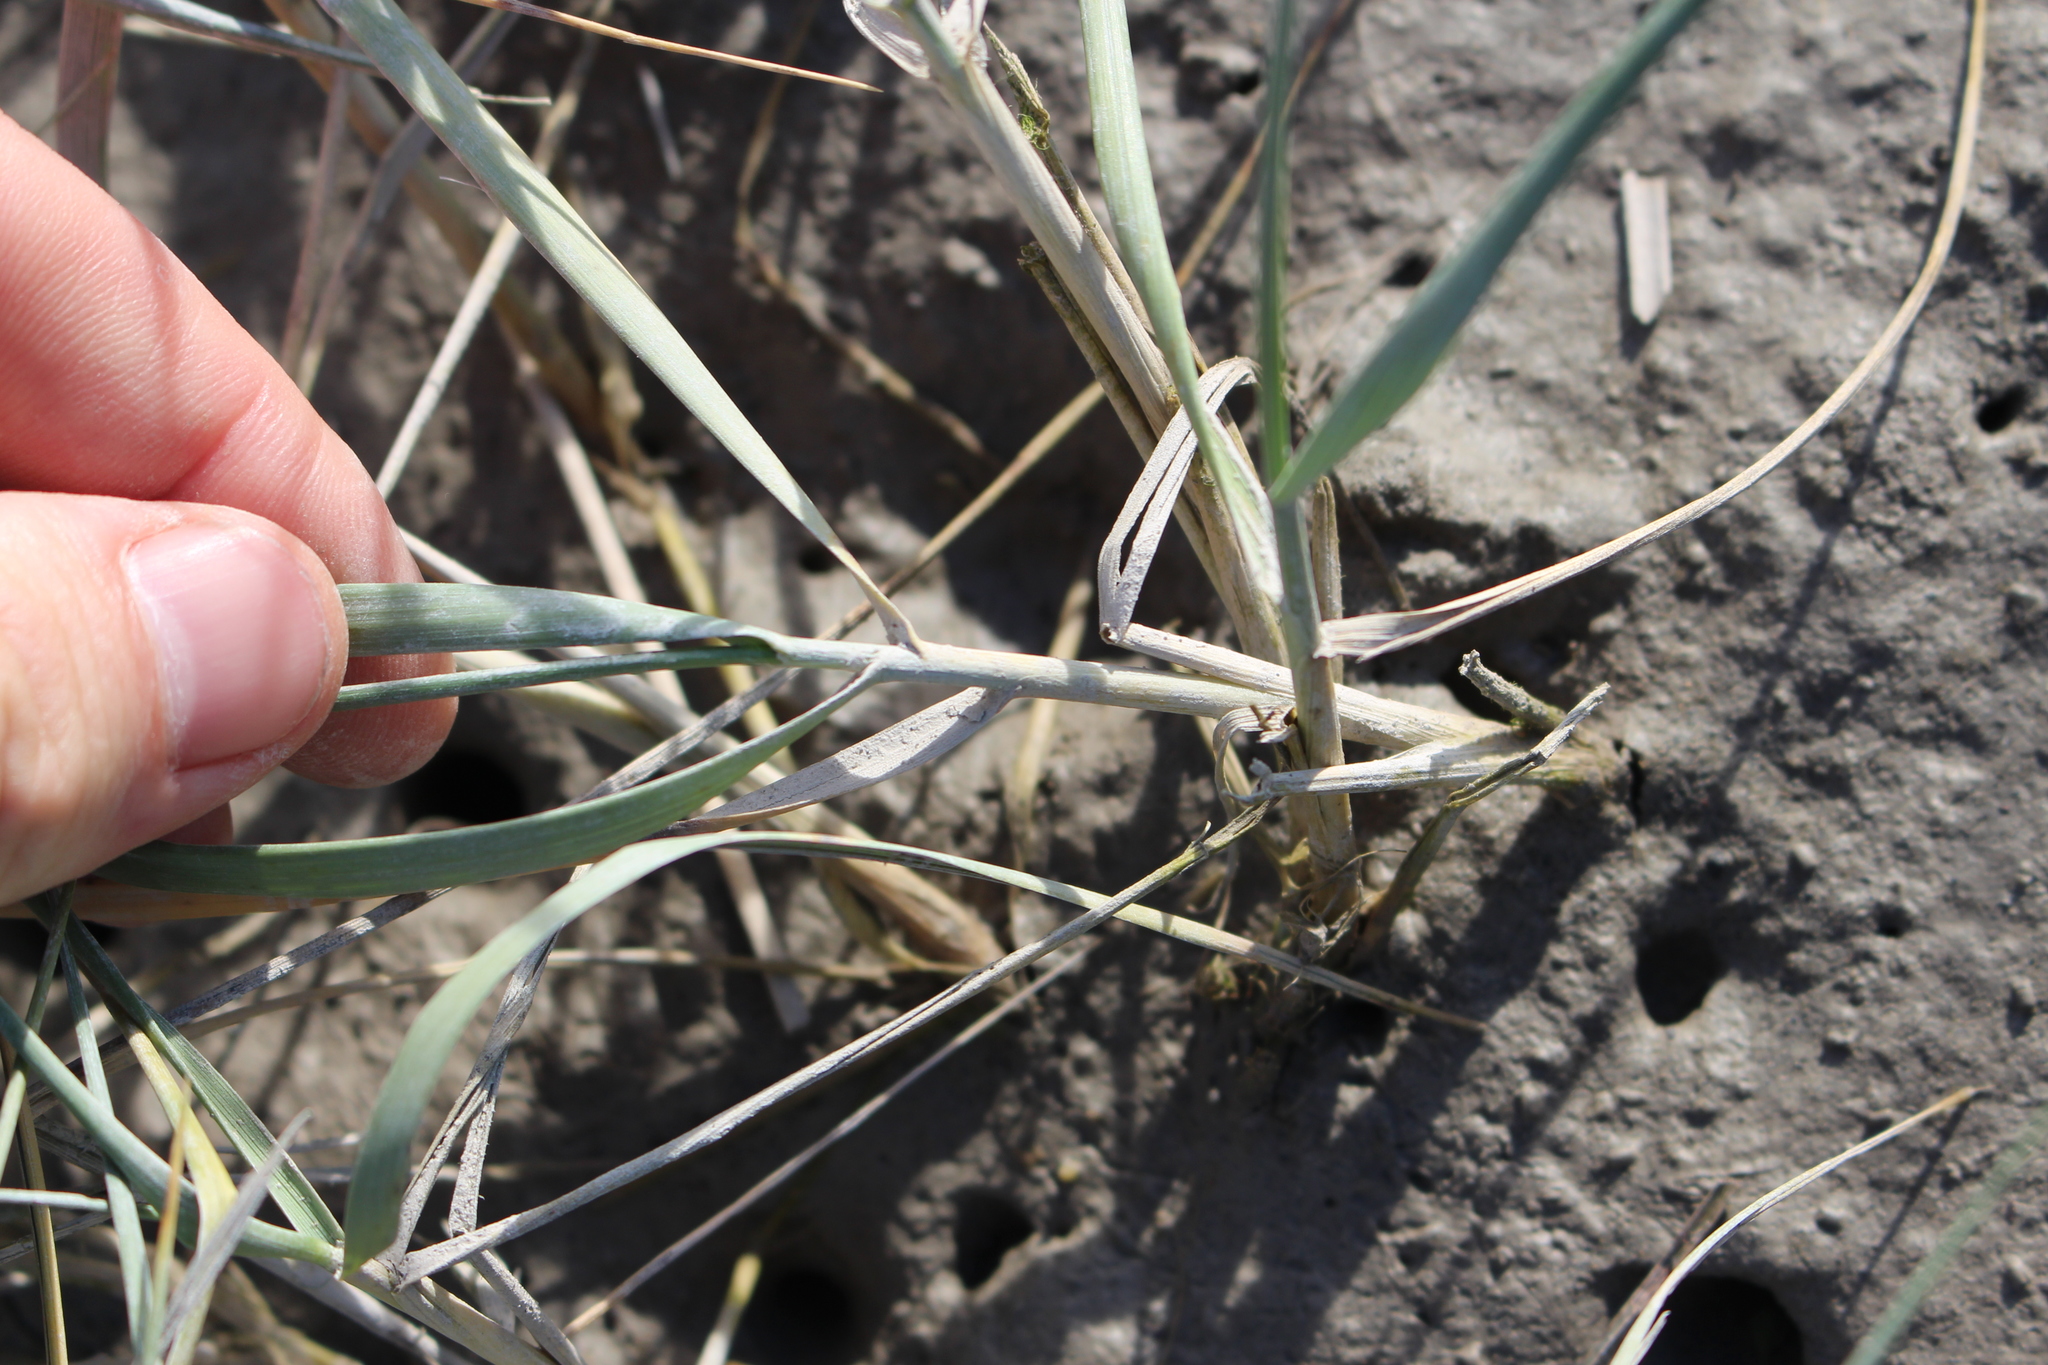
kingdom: Plantae
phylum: Tracheophyta
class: Liliopsida
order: Poales
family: Poaceae
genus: Thinopyrum
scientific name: Thinopyrum junceum
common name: Russian wheatgrass
